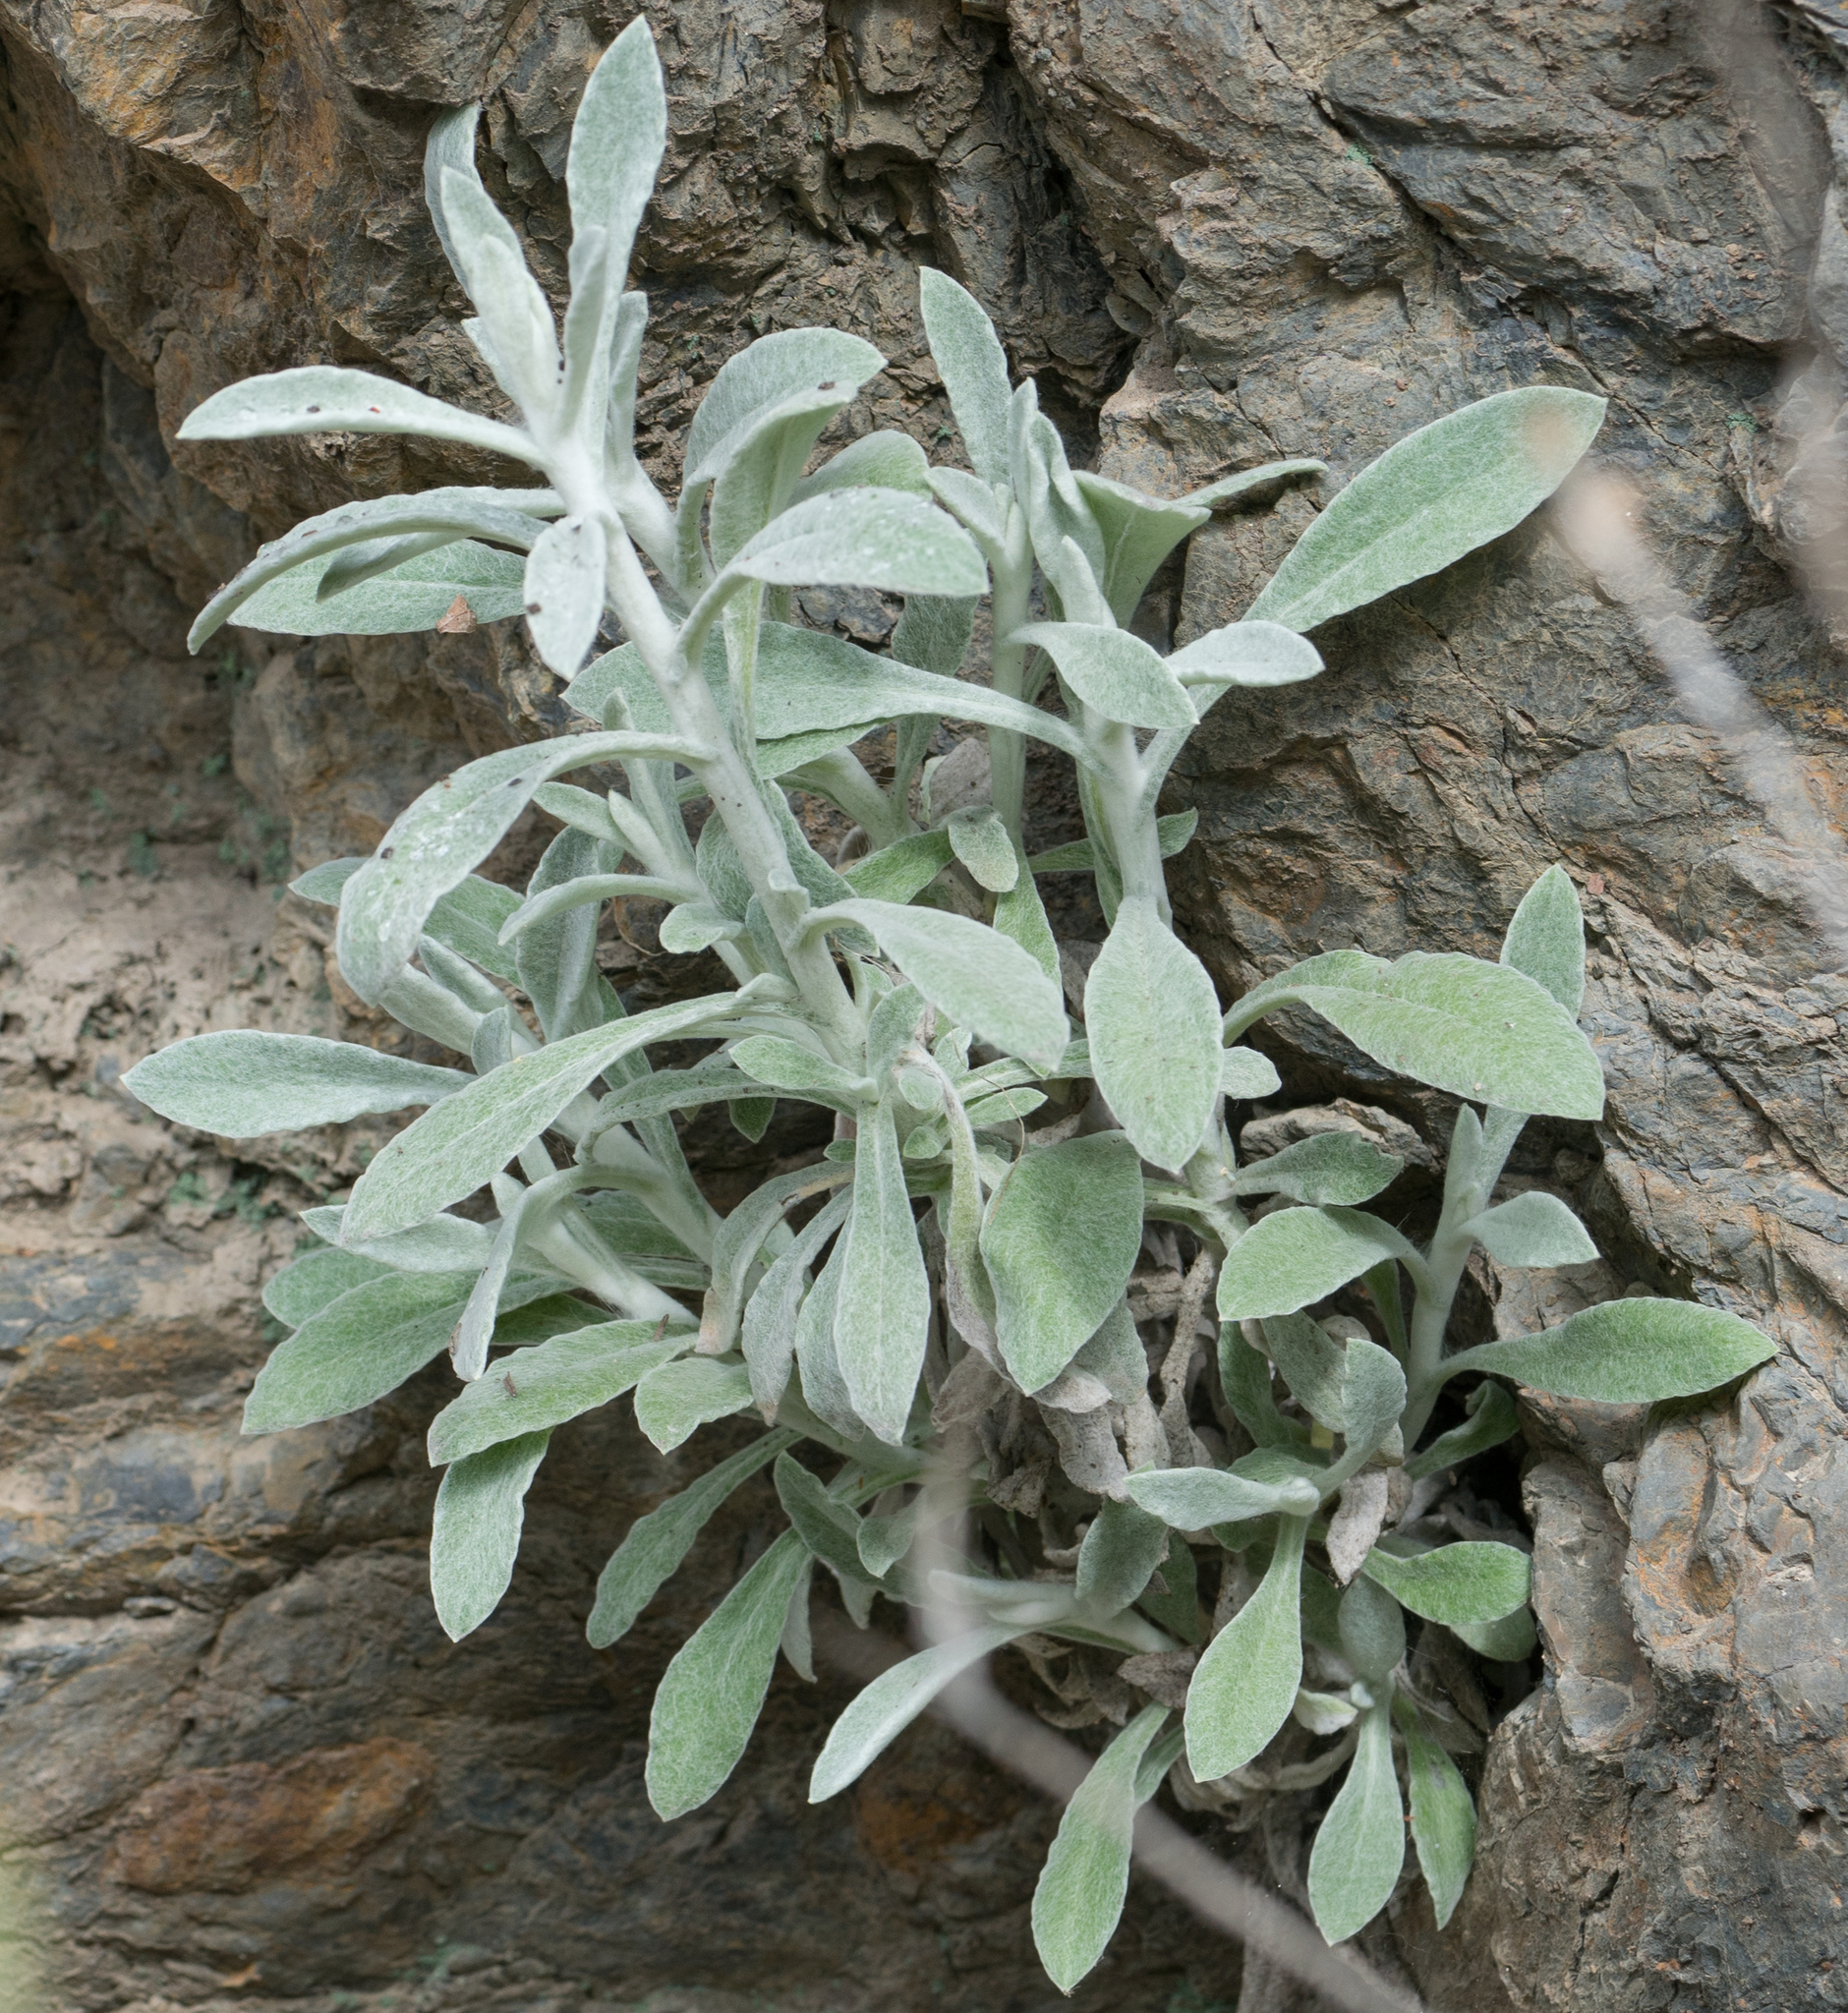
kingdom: Plantae
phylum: Tracheophyta
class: Magnoliopsida
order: Asterales
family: Asteraceae
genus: Pseudognaphalium
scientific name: Pseudognaphalium microcephalum
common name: San diego rabbit-tobacco
